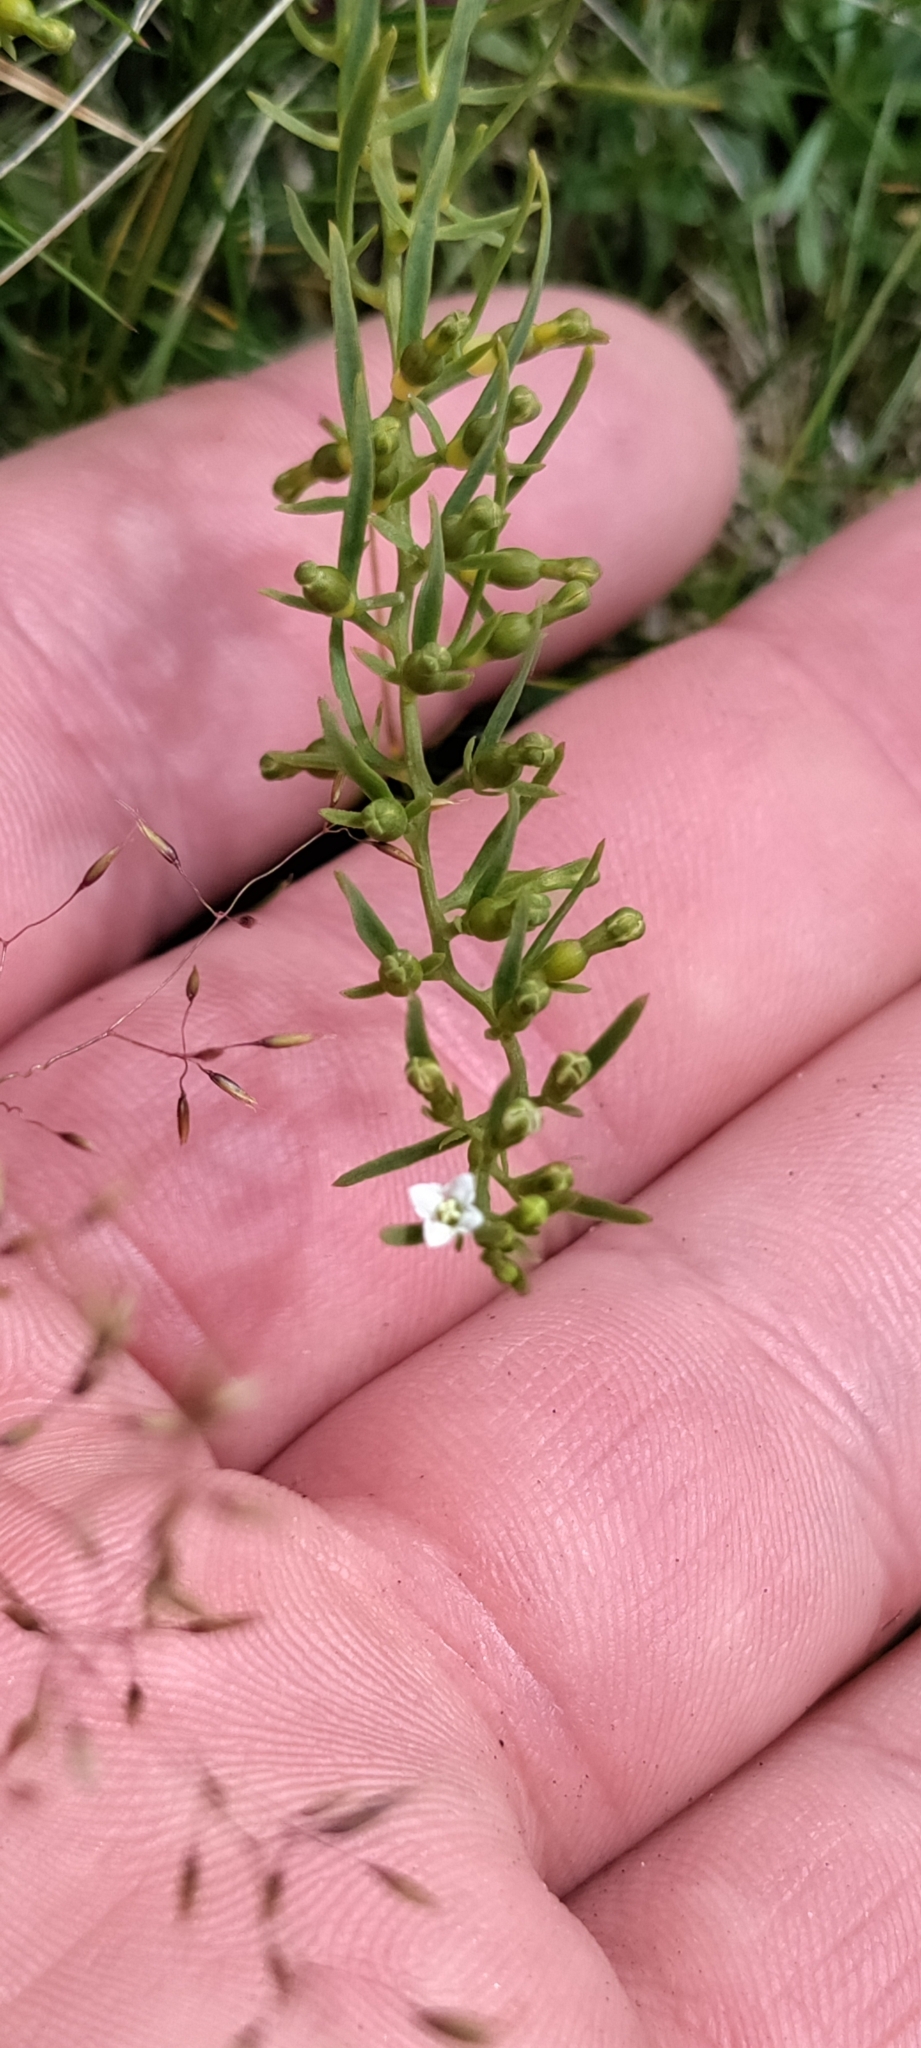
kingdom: Plantae
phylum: Tracheophyta
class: Magnoliopsida
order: Santalales
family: Thesiaceae
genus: Thesium
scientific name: Thesium alpinum
